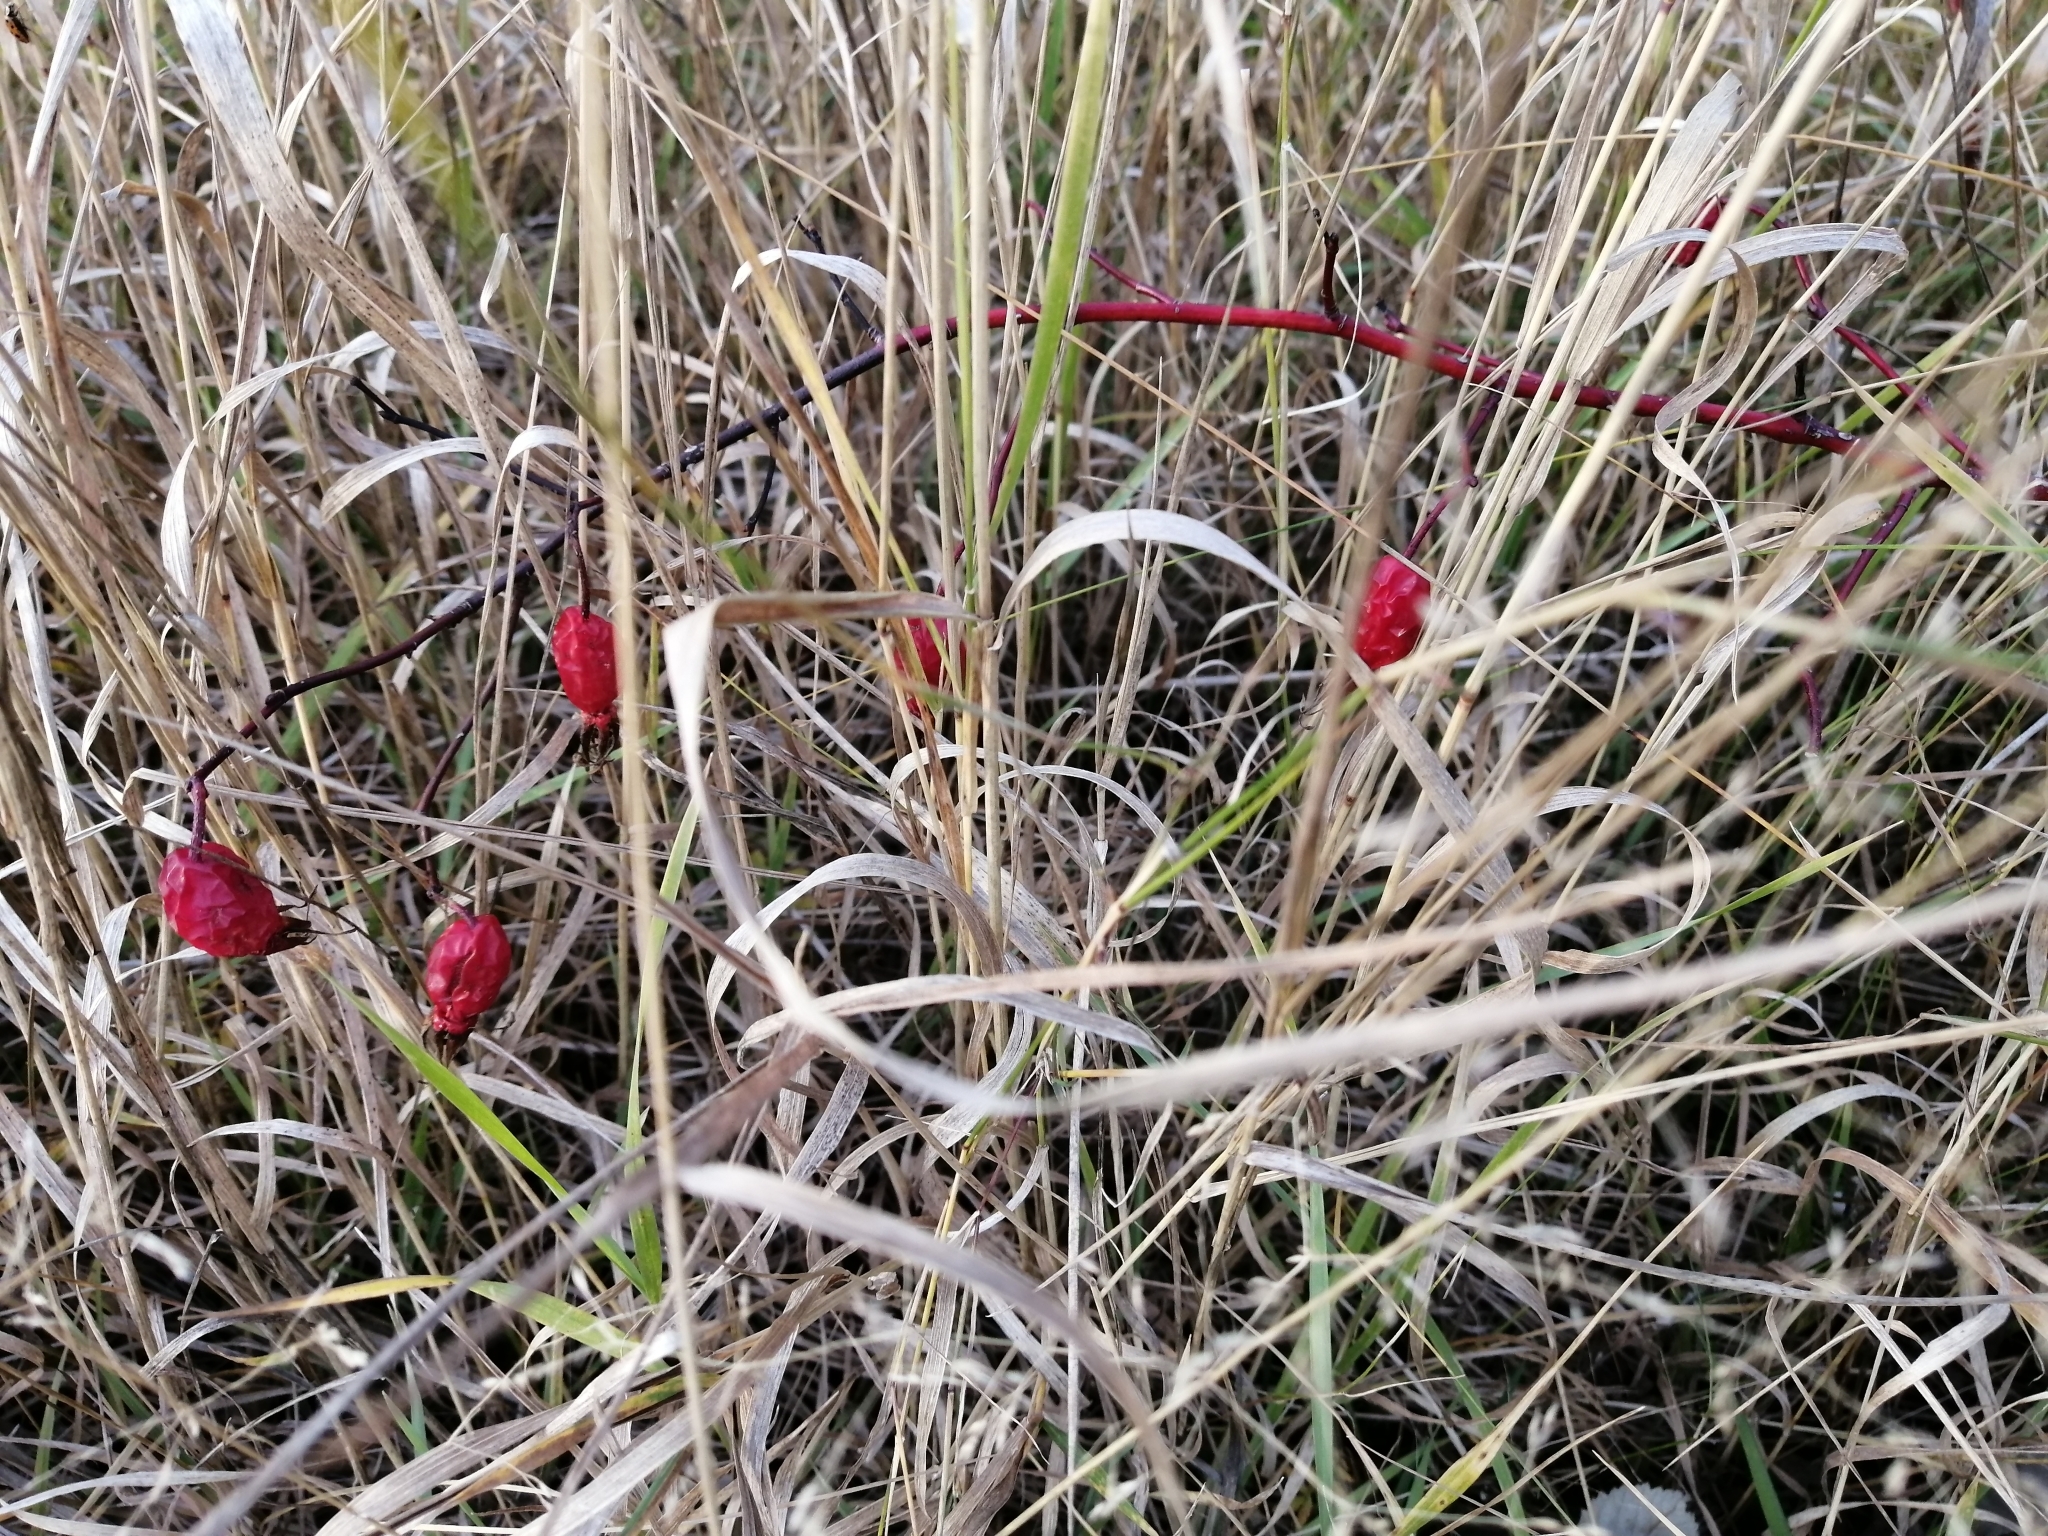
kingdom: Plantae
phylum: Tracheophyta
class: Magnoliopsida
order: Rosales
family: Rosaceae
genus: Rosa
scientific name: Rosa majalis
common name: Cinnamon rose
